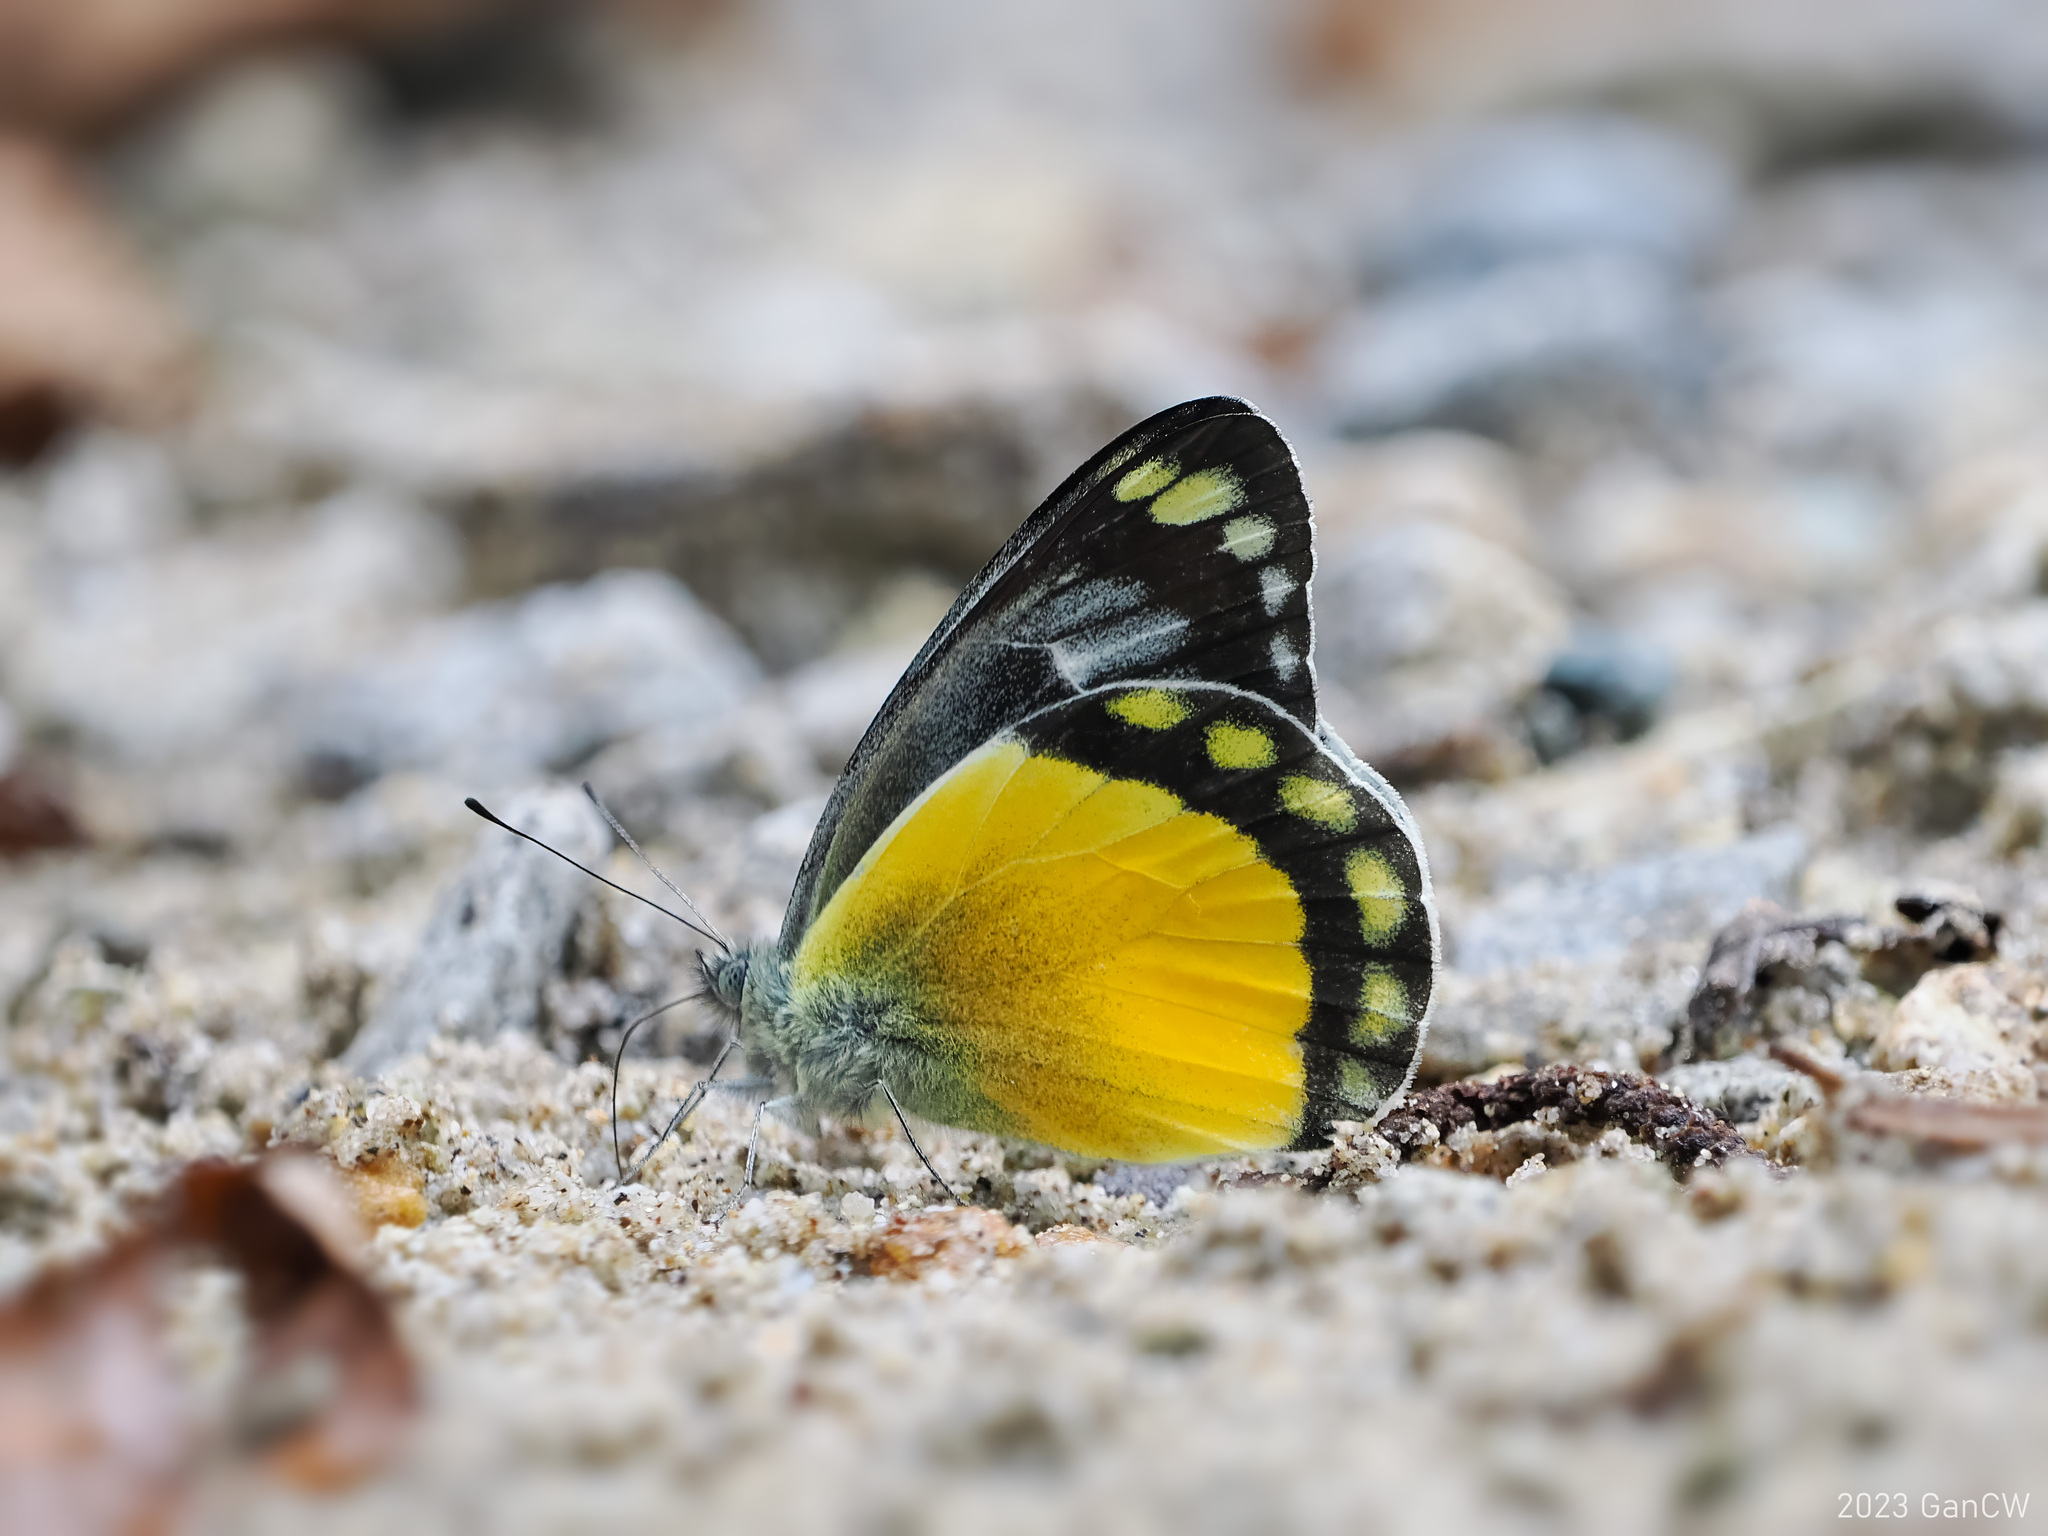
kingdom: Animalia
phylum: Arthropoda
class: Insecta
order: Lepidoptera
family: Pieridae
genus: Delias
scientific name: Delias melusina
